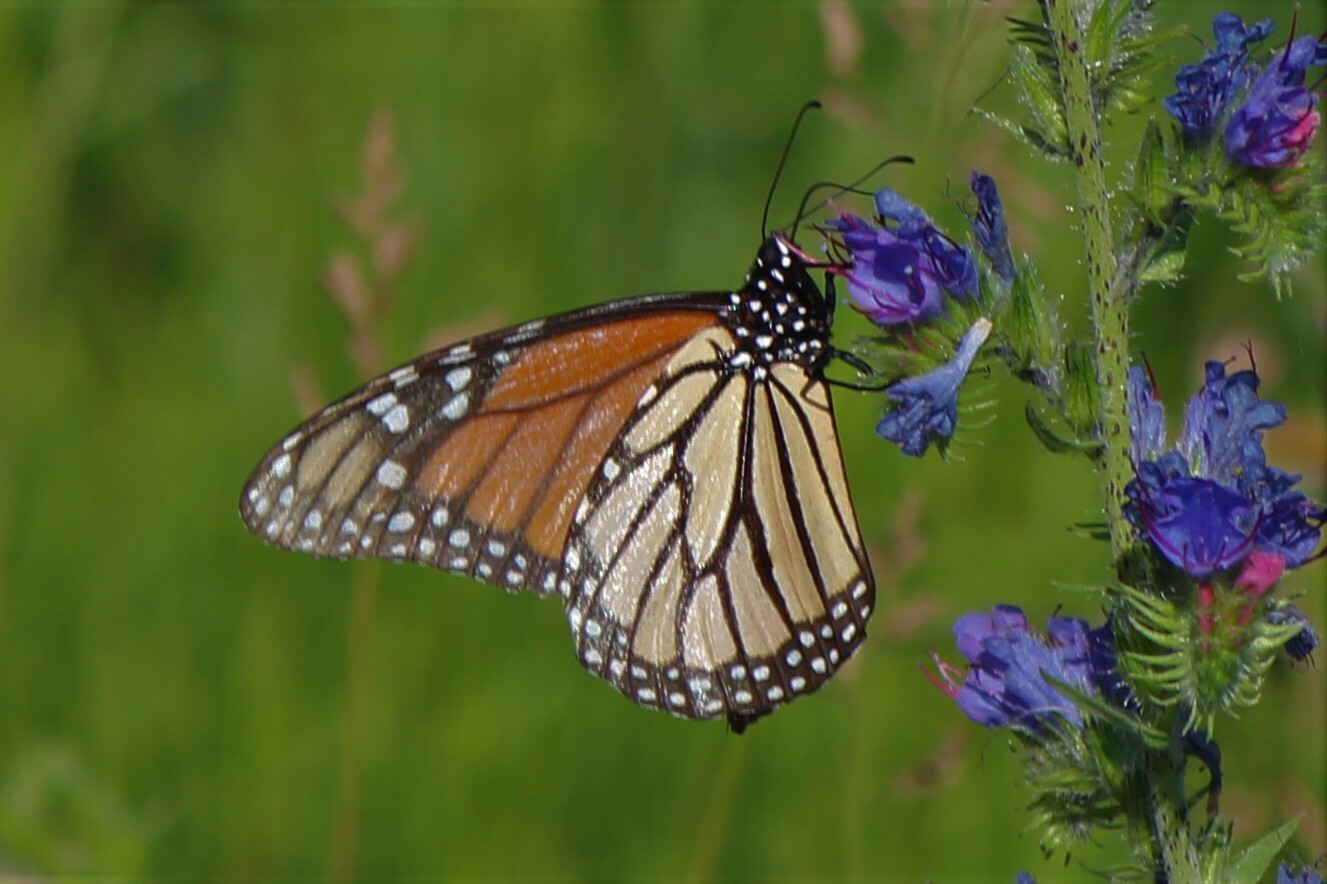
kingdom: Animalia
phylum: Arthropoda
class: Insecta
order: Lepidoptera
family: Nymphalidae
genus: Danaus
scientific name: Danaus plexippus
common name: Monarch
